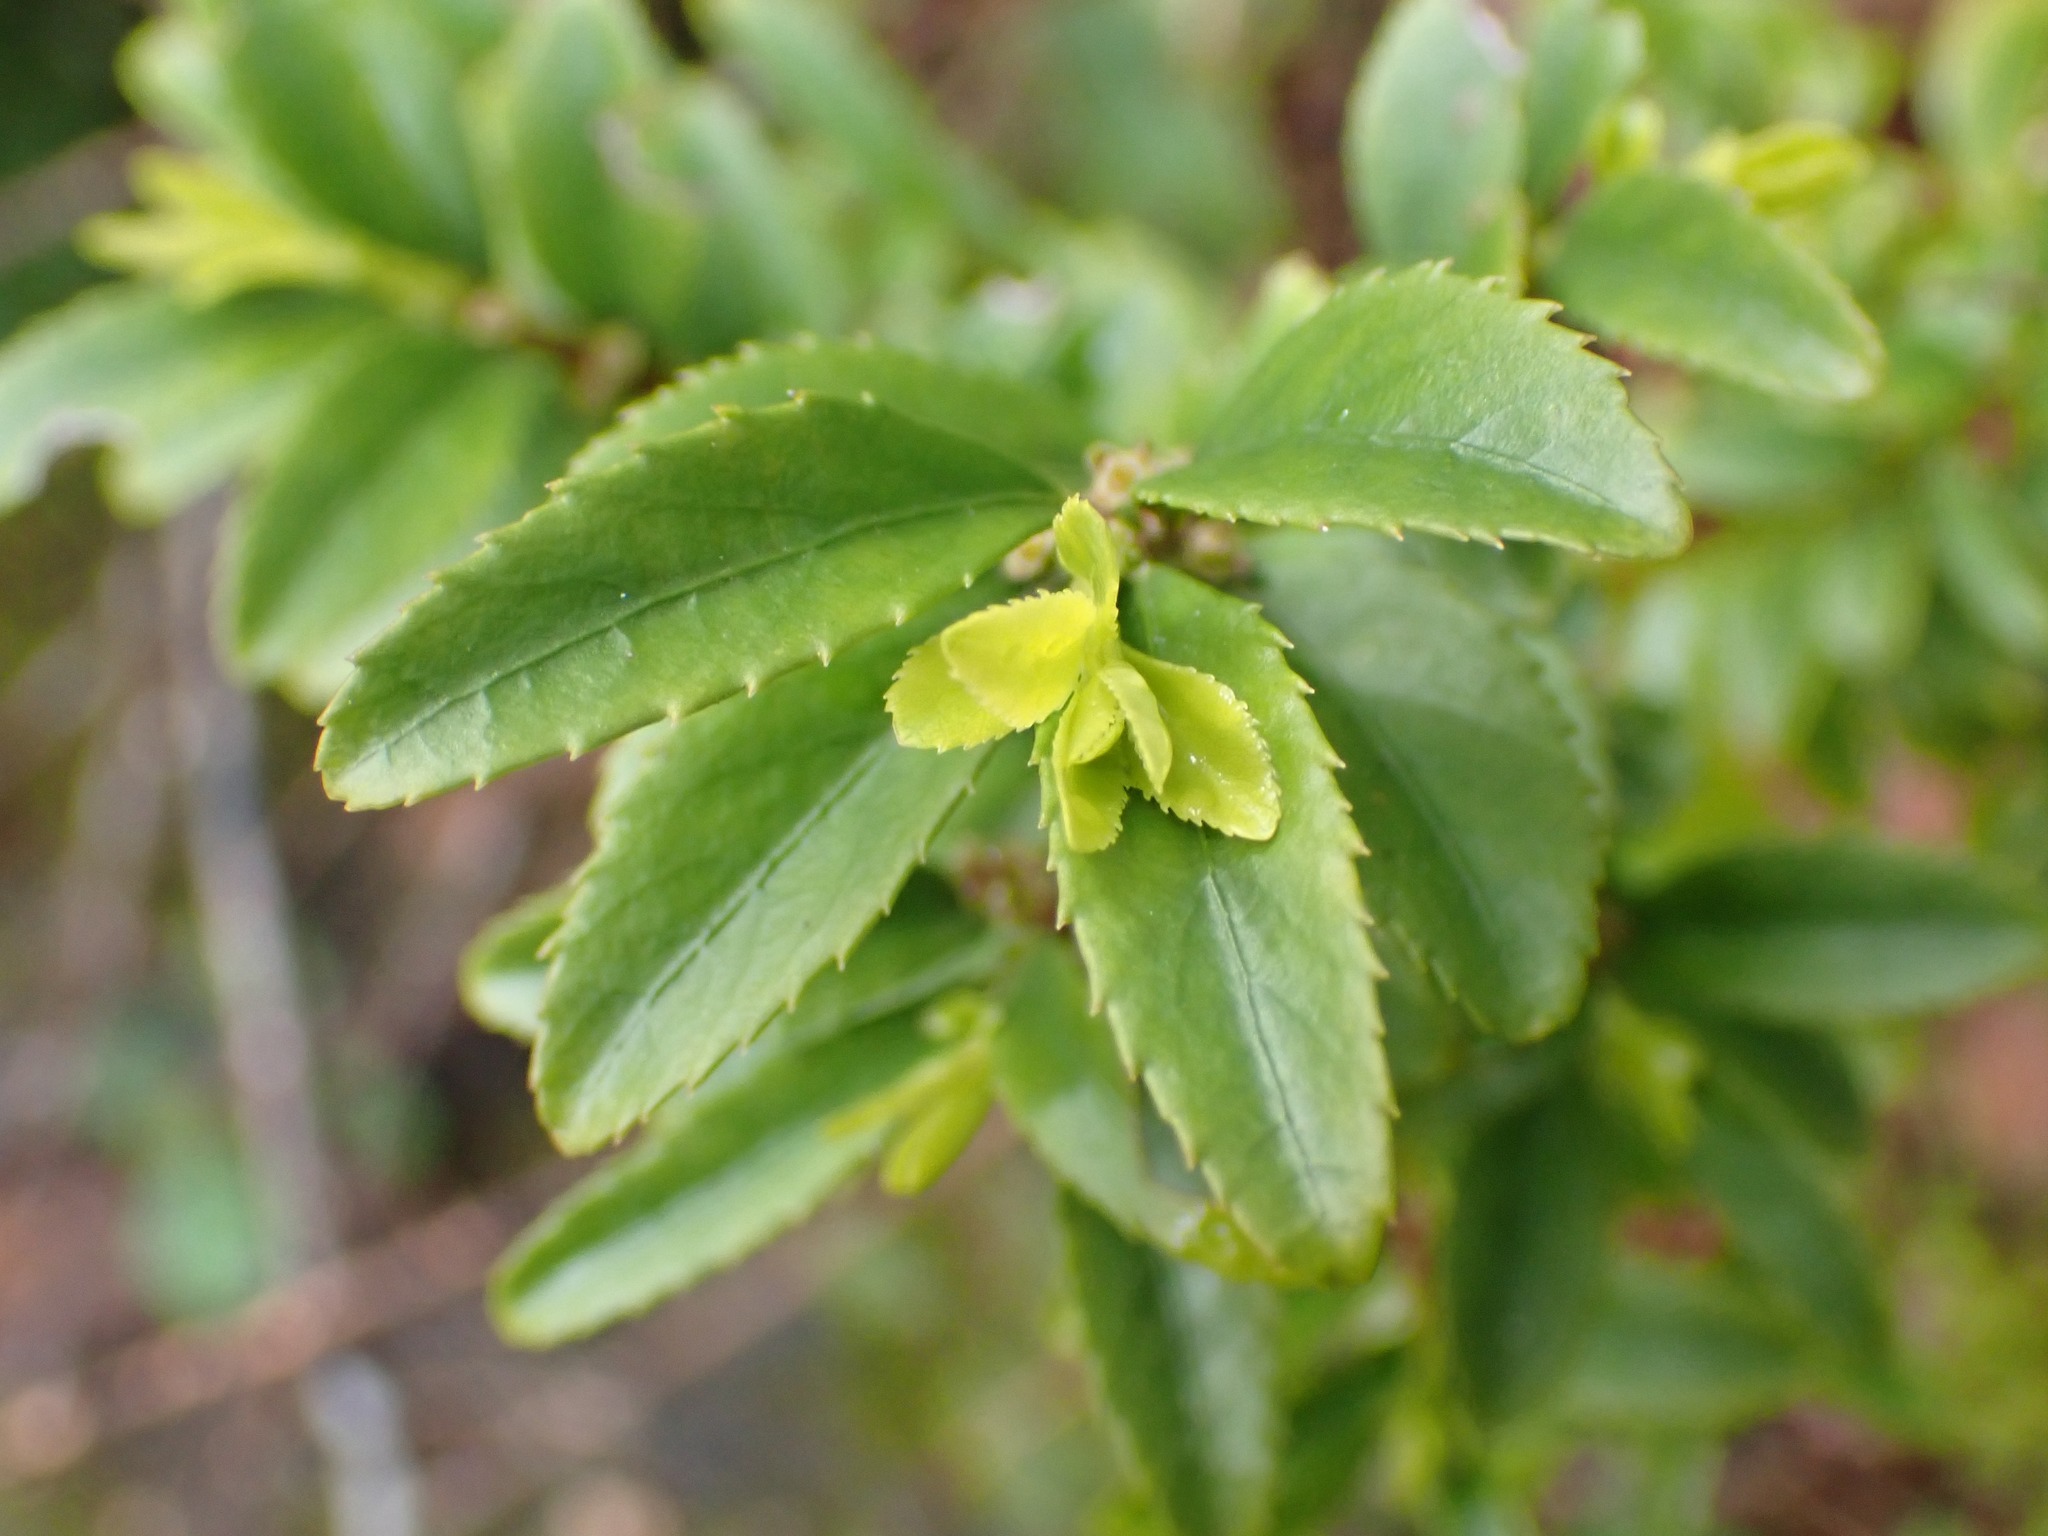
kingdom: Plantae
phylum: Tracheophyta
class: Magnoliopsida
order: Celastrales
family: Celastraceae
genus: Paxistima
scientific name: Paxistima myrsinites
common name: Mountain-lover
